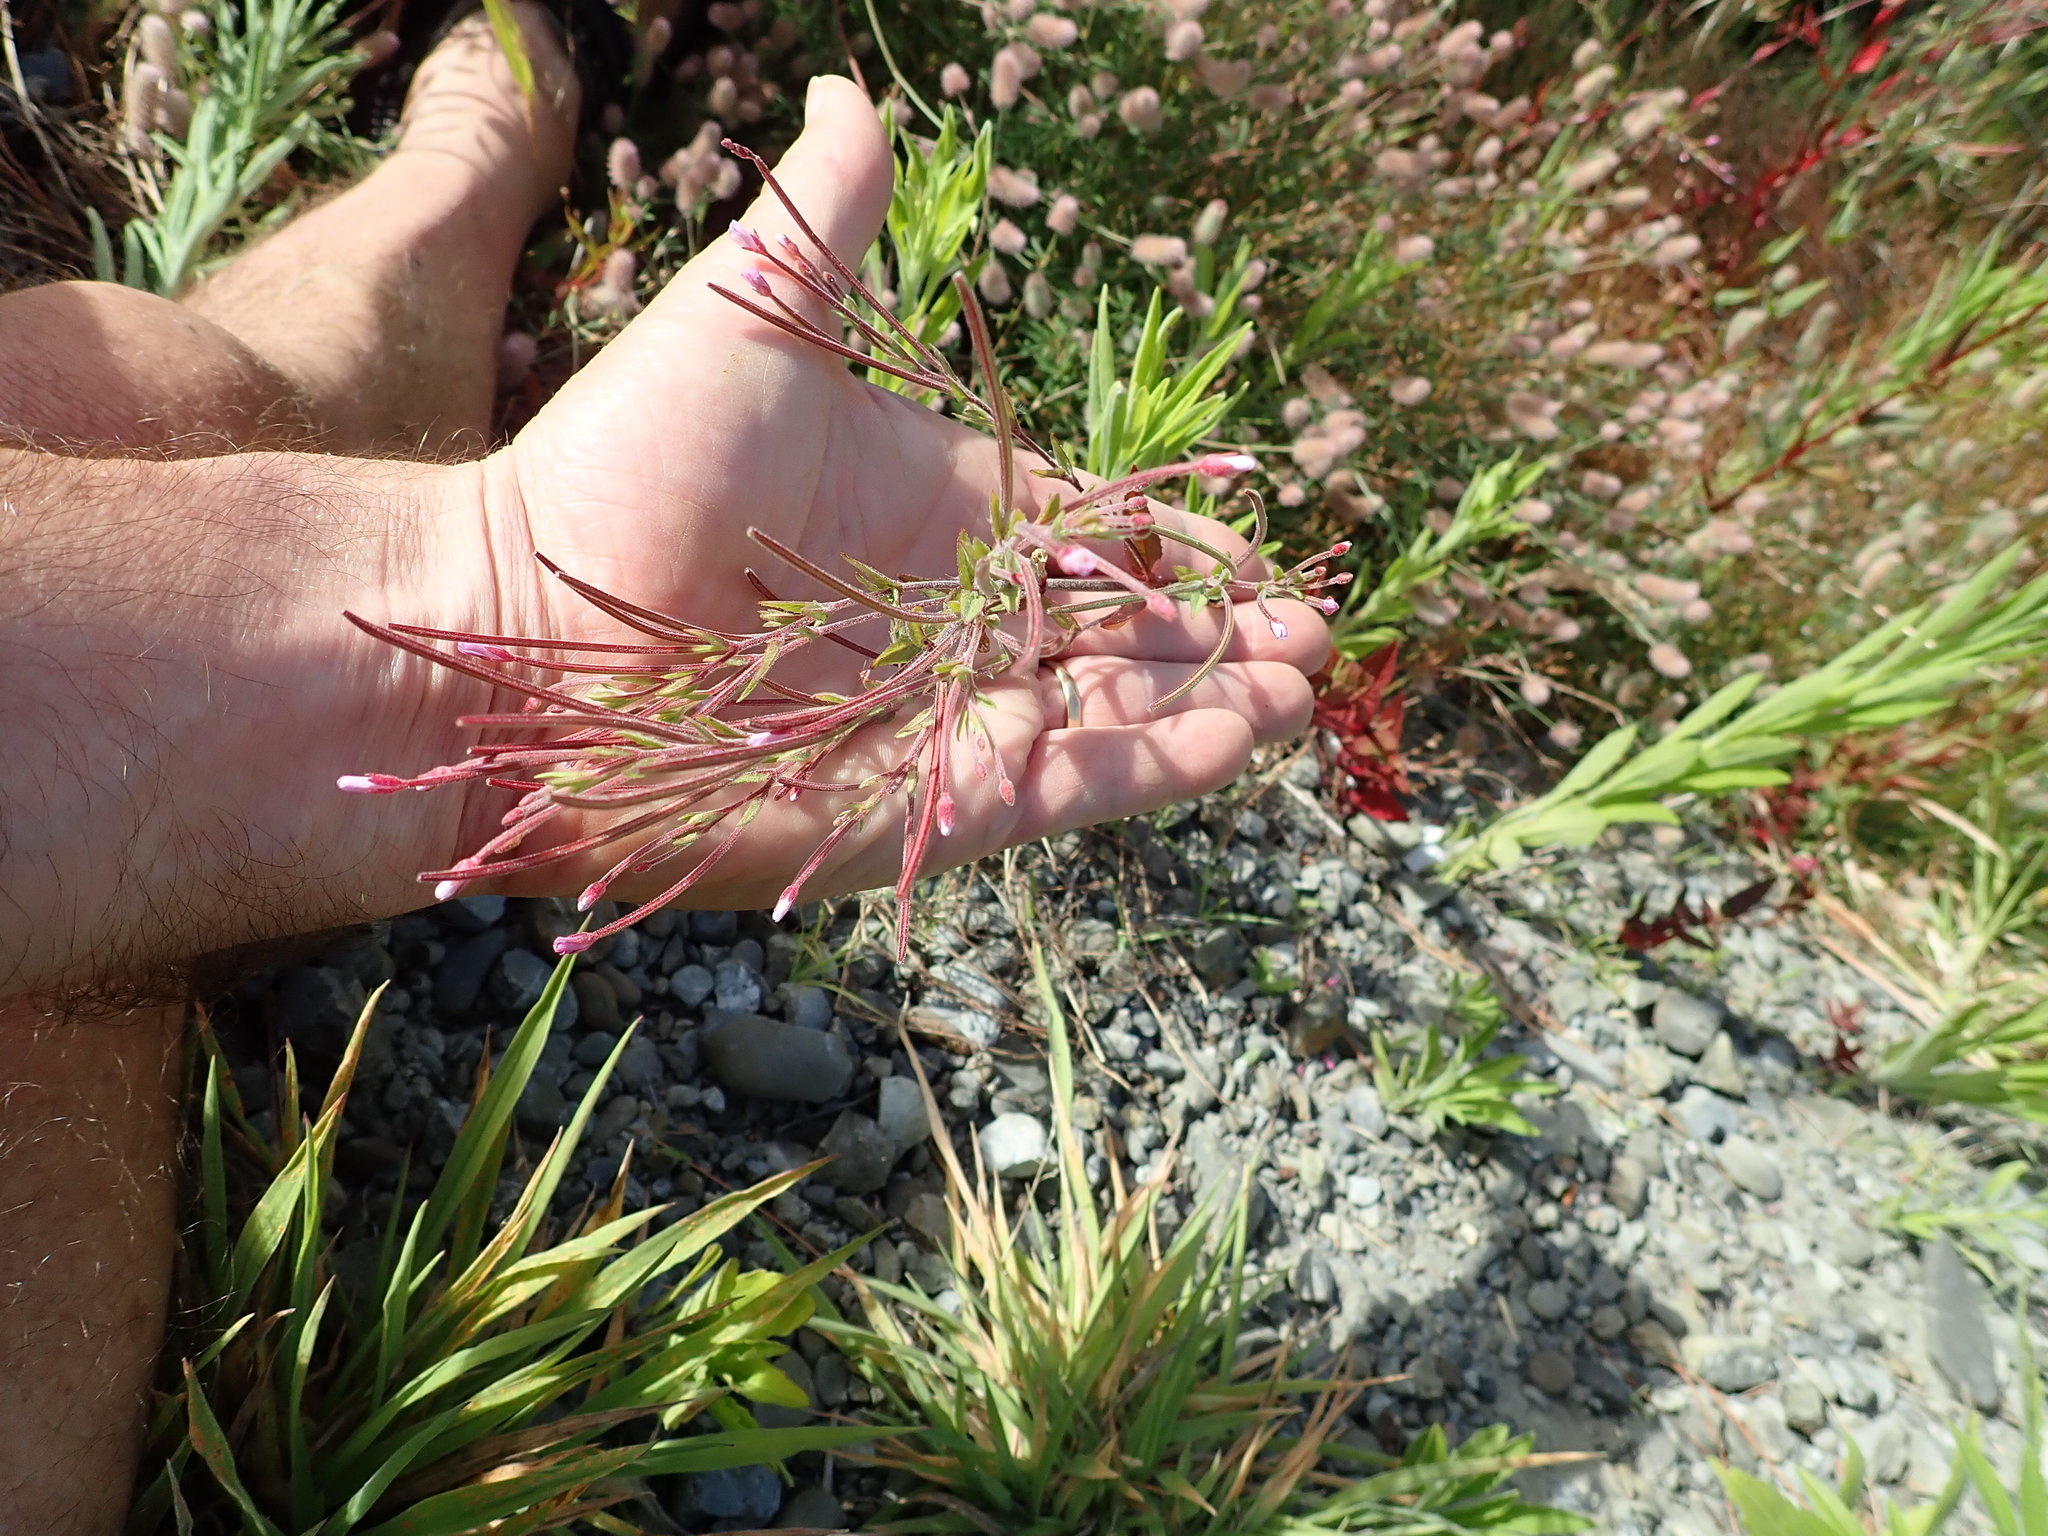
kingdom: Plantae
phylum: Tracheophyta
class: Magnoliopsida
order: Myrtales
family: Onagraceae
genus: Epilobium
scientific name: Epilobium ciliatum
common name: American willowherb
